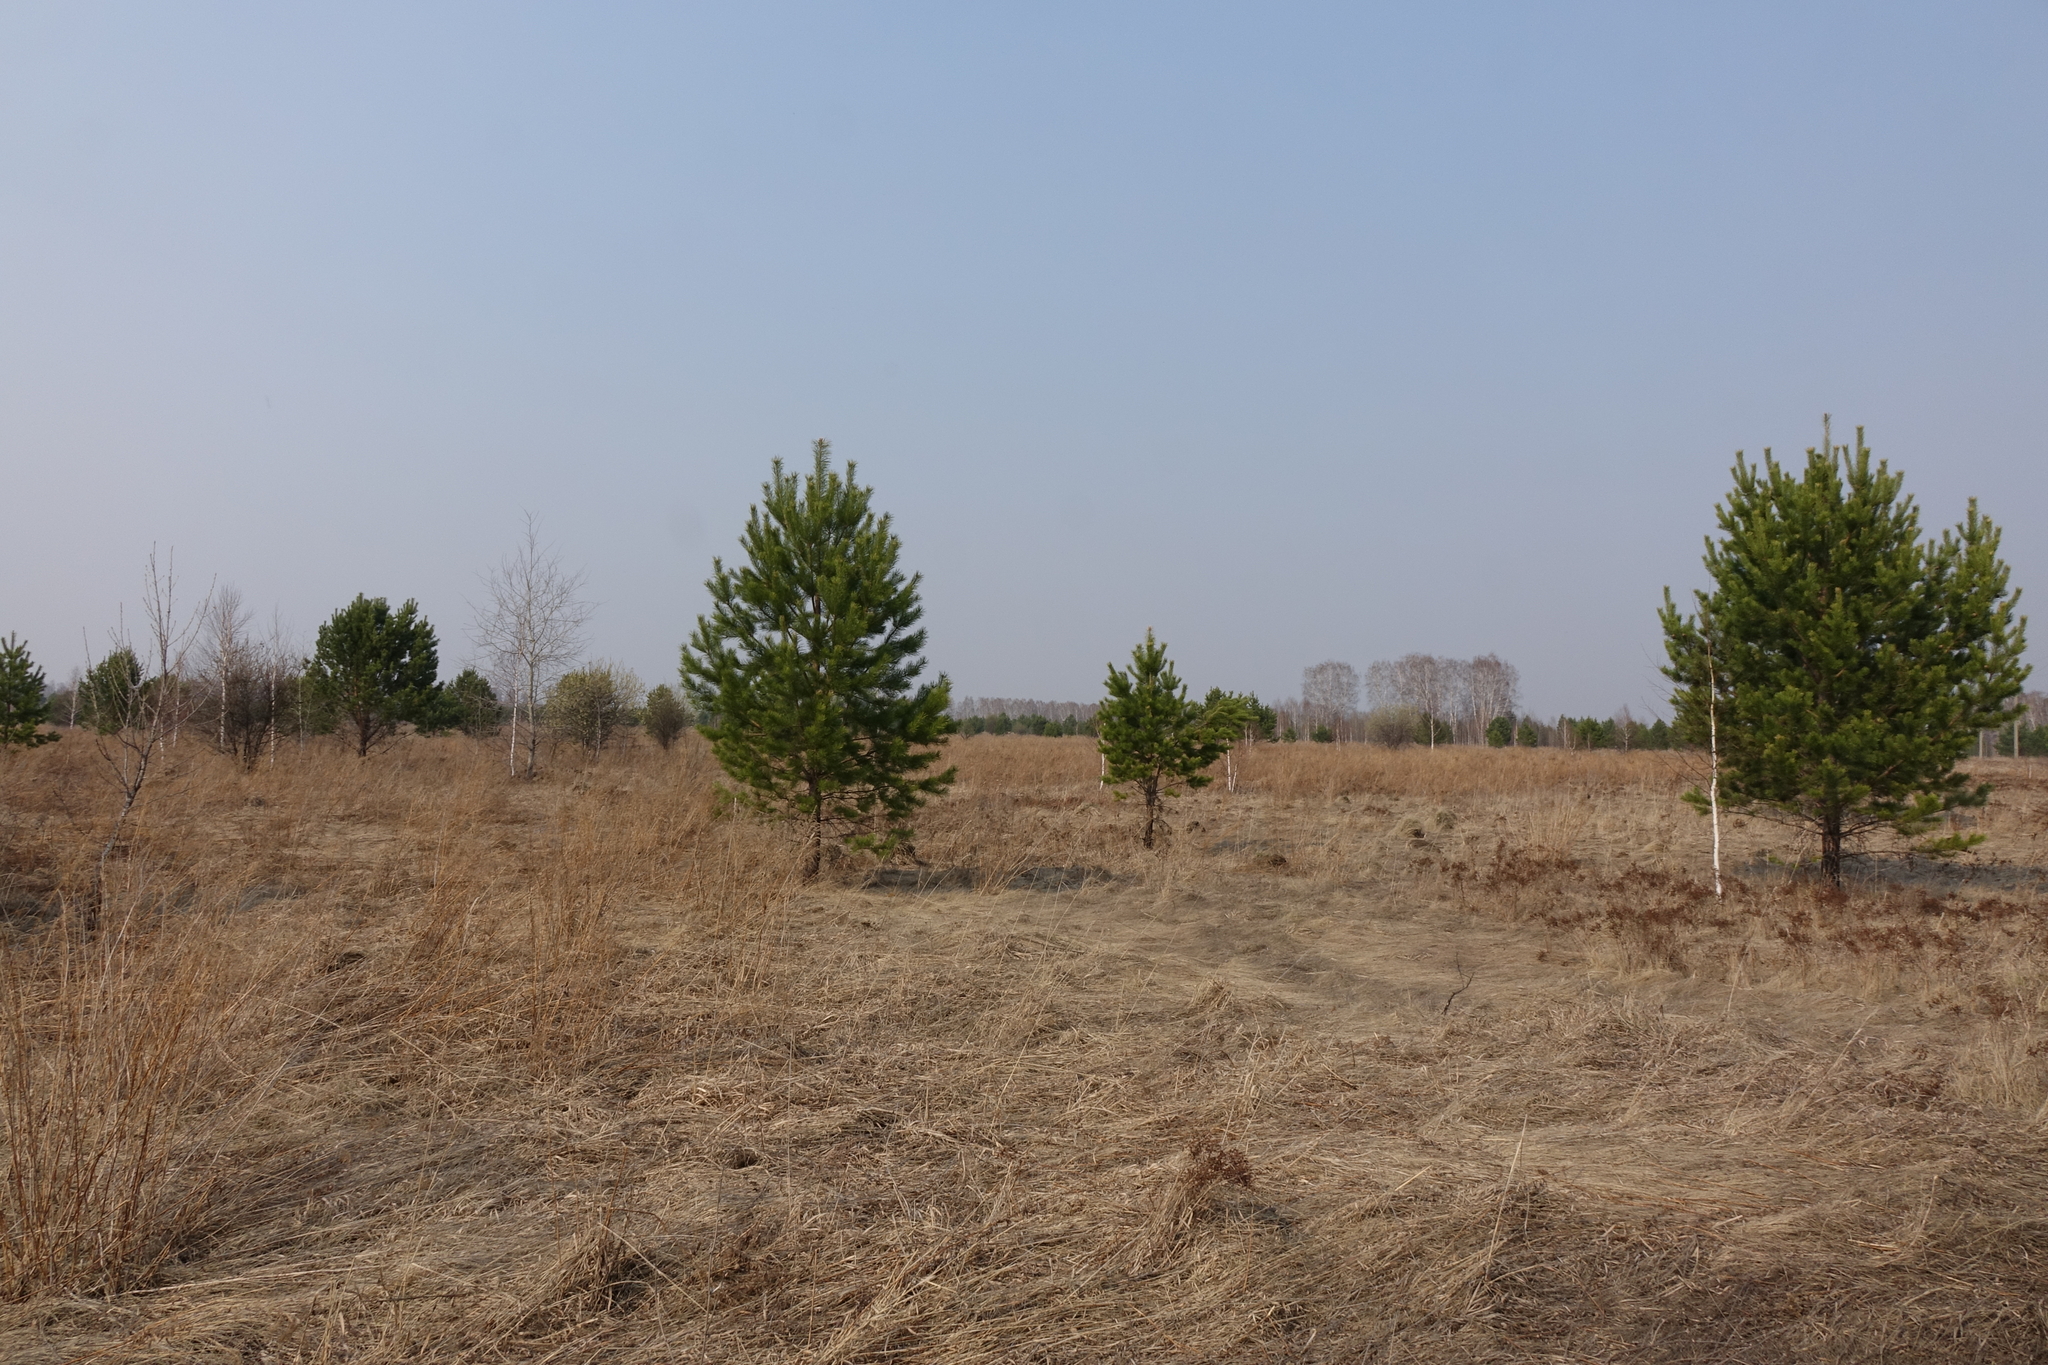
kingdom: Plantae
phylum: Tracheophyta
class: Pinopsida
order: Pinales
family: Pinaceae
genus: Pinus
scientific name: Pinus sylvestris
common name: Scots pine
